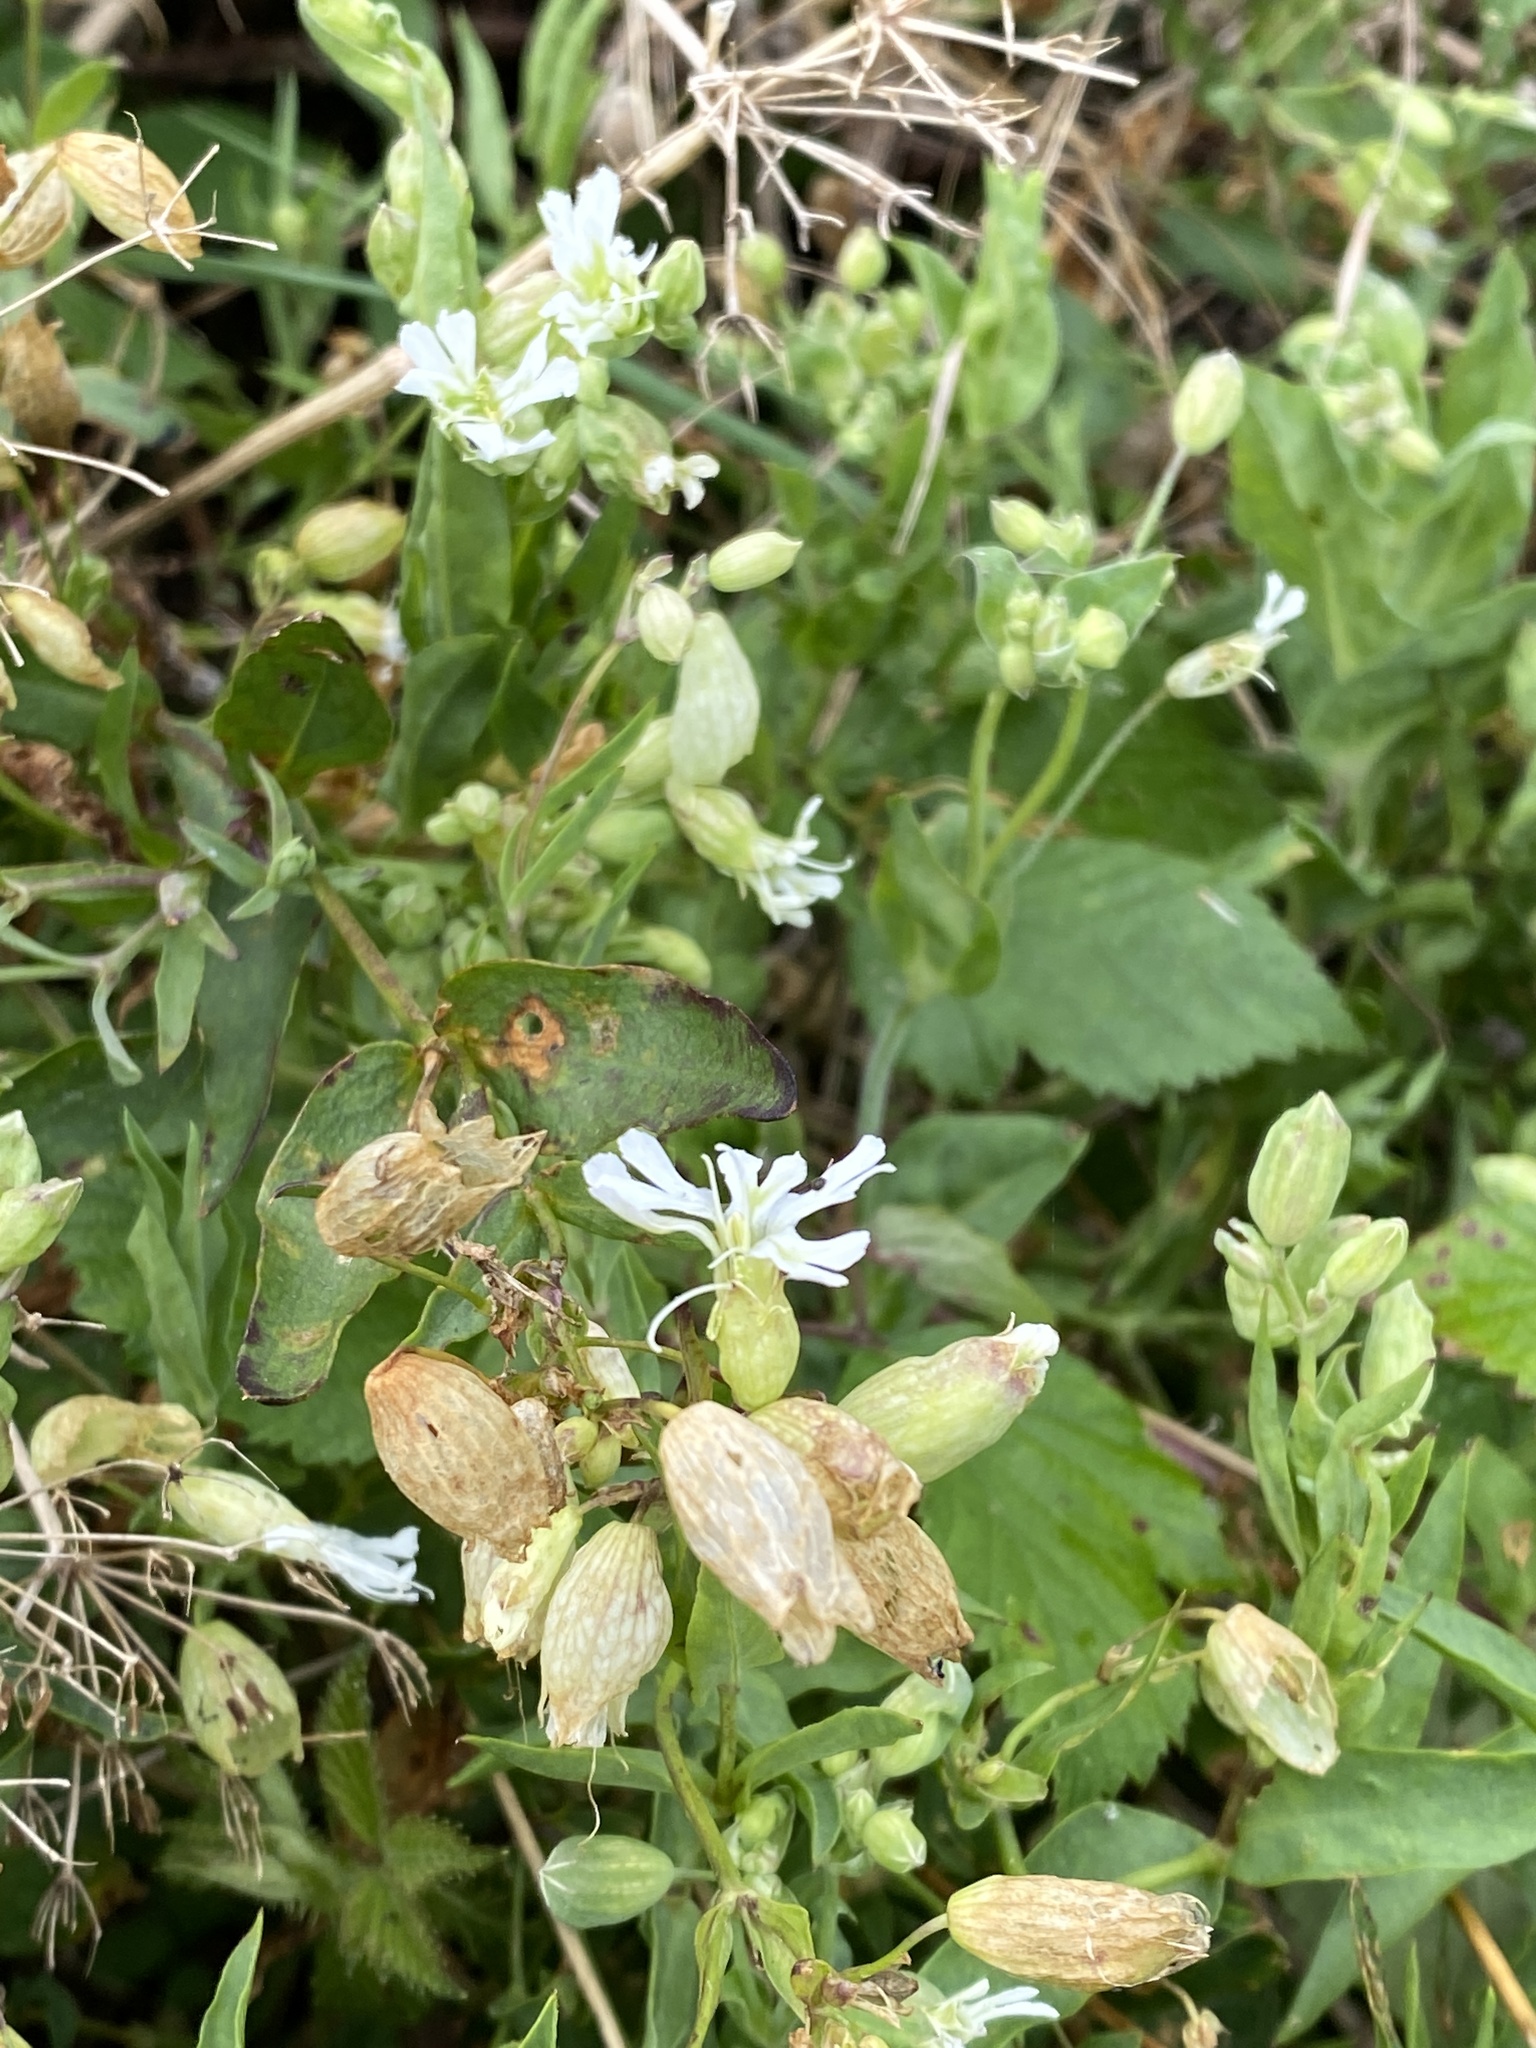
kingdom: Plantae
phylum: Tracheophyta
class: Magnoliopsida
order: Caryophyllales
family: Caryophyllaceae
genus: Silene
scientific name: Silene vulgaris
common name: Bladder campion
